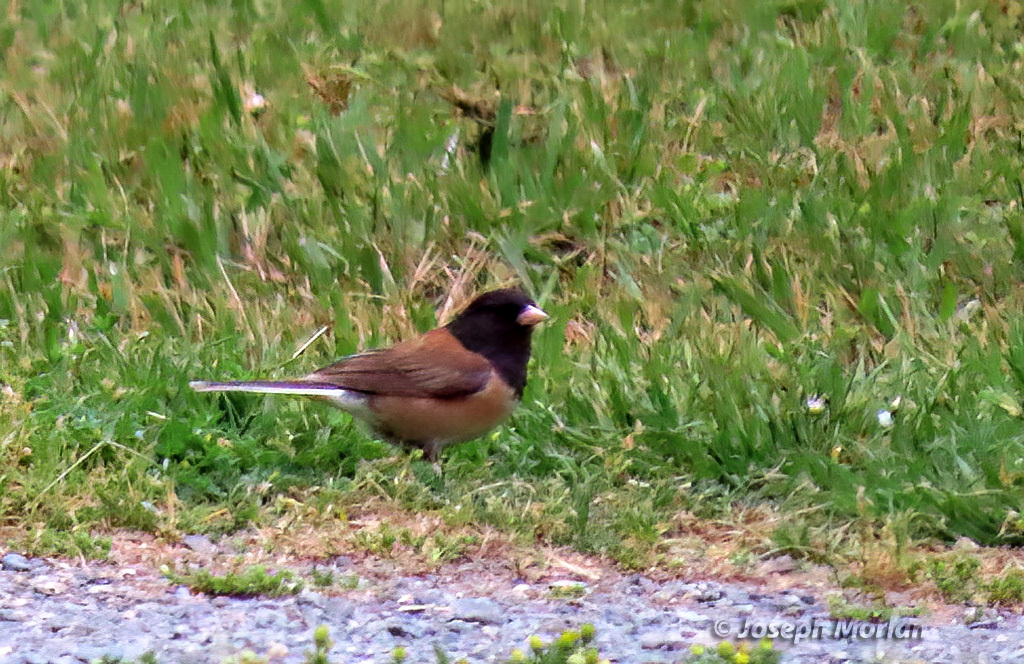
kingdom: Animalia
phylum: Chordata
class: Aves
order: Passeriformes
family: Passerellidae
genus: Junco
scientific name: Junco hyemalis
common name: Dark-eyed junco
